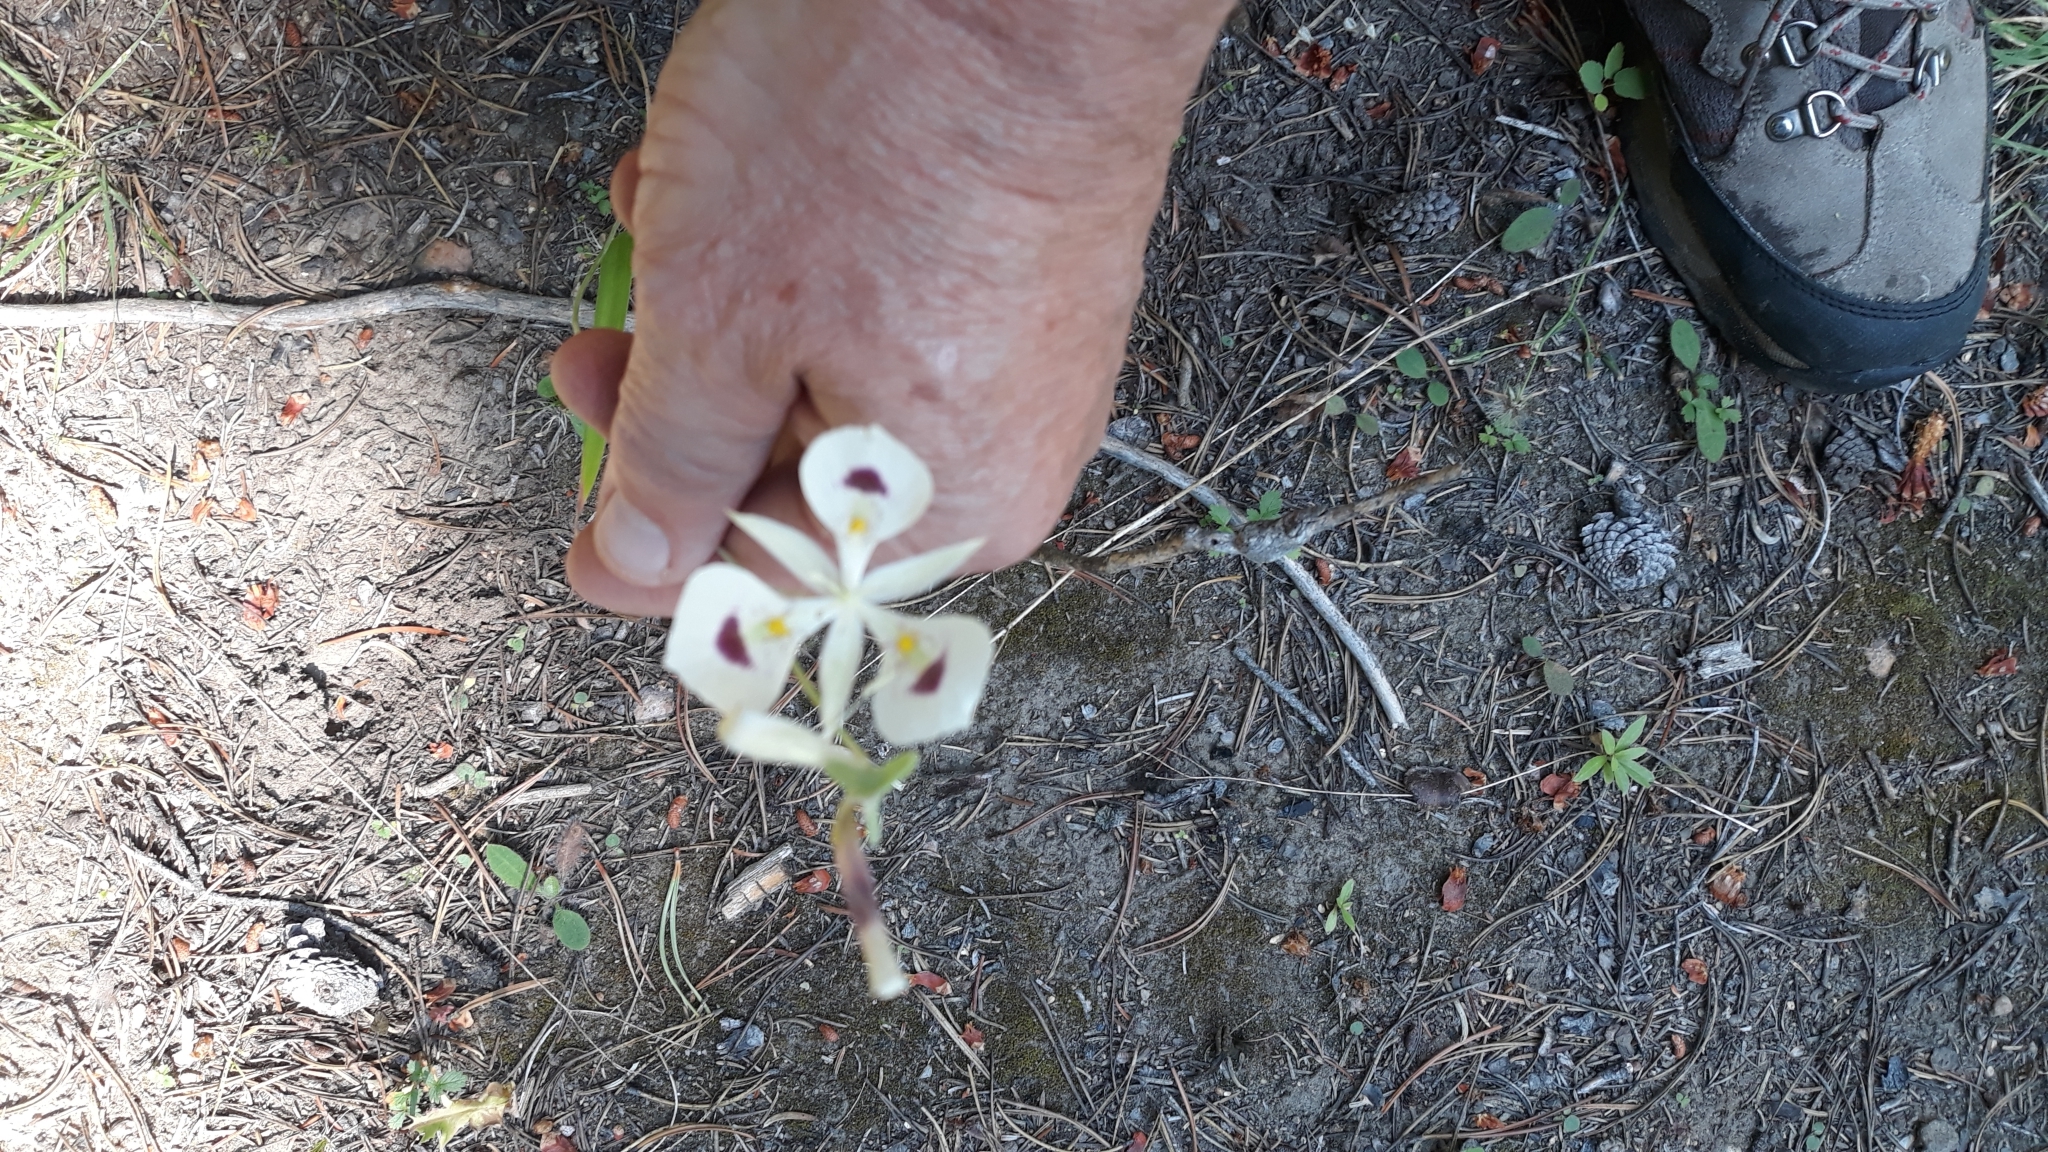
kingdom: Plantae
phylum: Tracheophyta
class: Liliopsida
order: Liliales
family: Liliaceae
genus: Calochortus
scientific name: Calochortus eurycarpus
